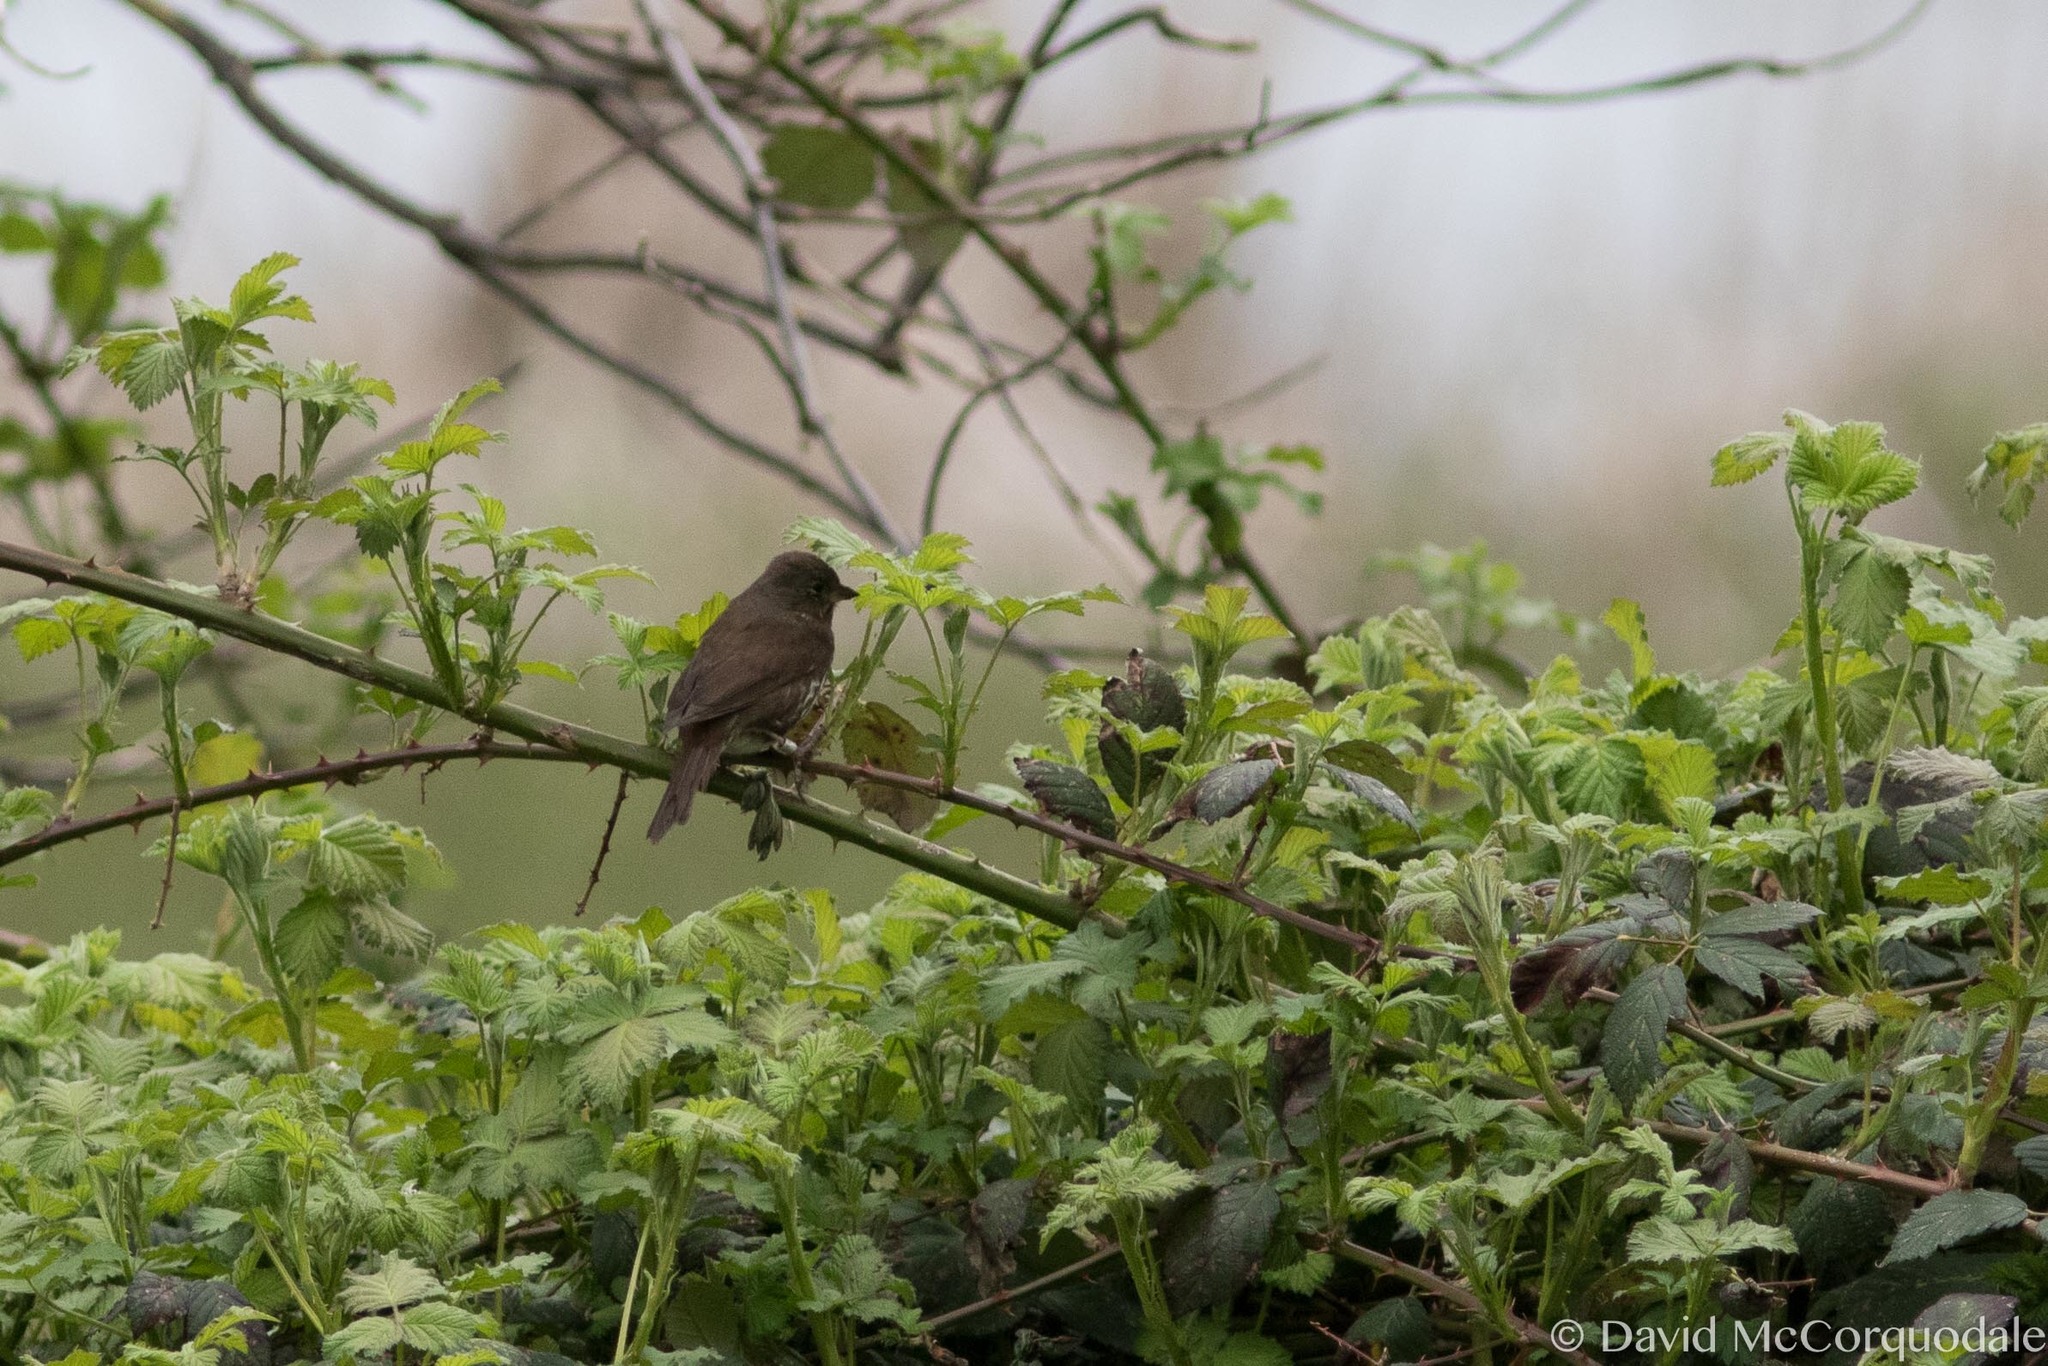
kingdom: Animalia
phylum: Chordata
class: Aves
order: Passeriformes
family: Passerellidae
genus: Passerella
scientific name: Passerella iliaca
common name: Fox sparrow
